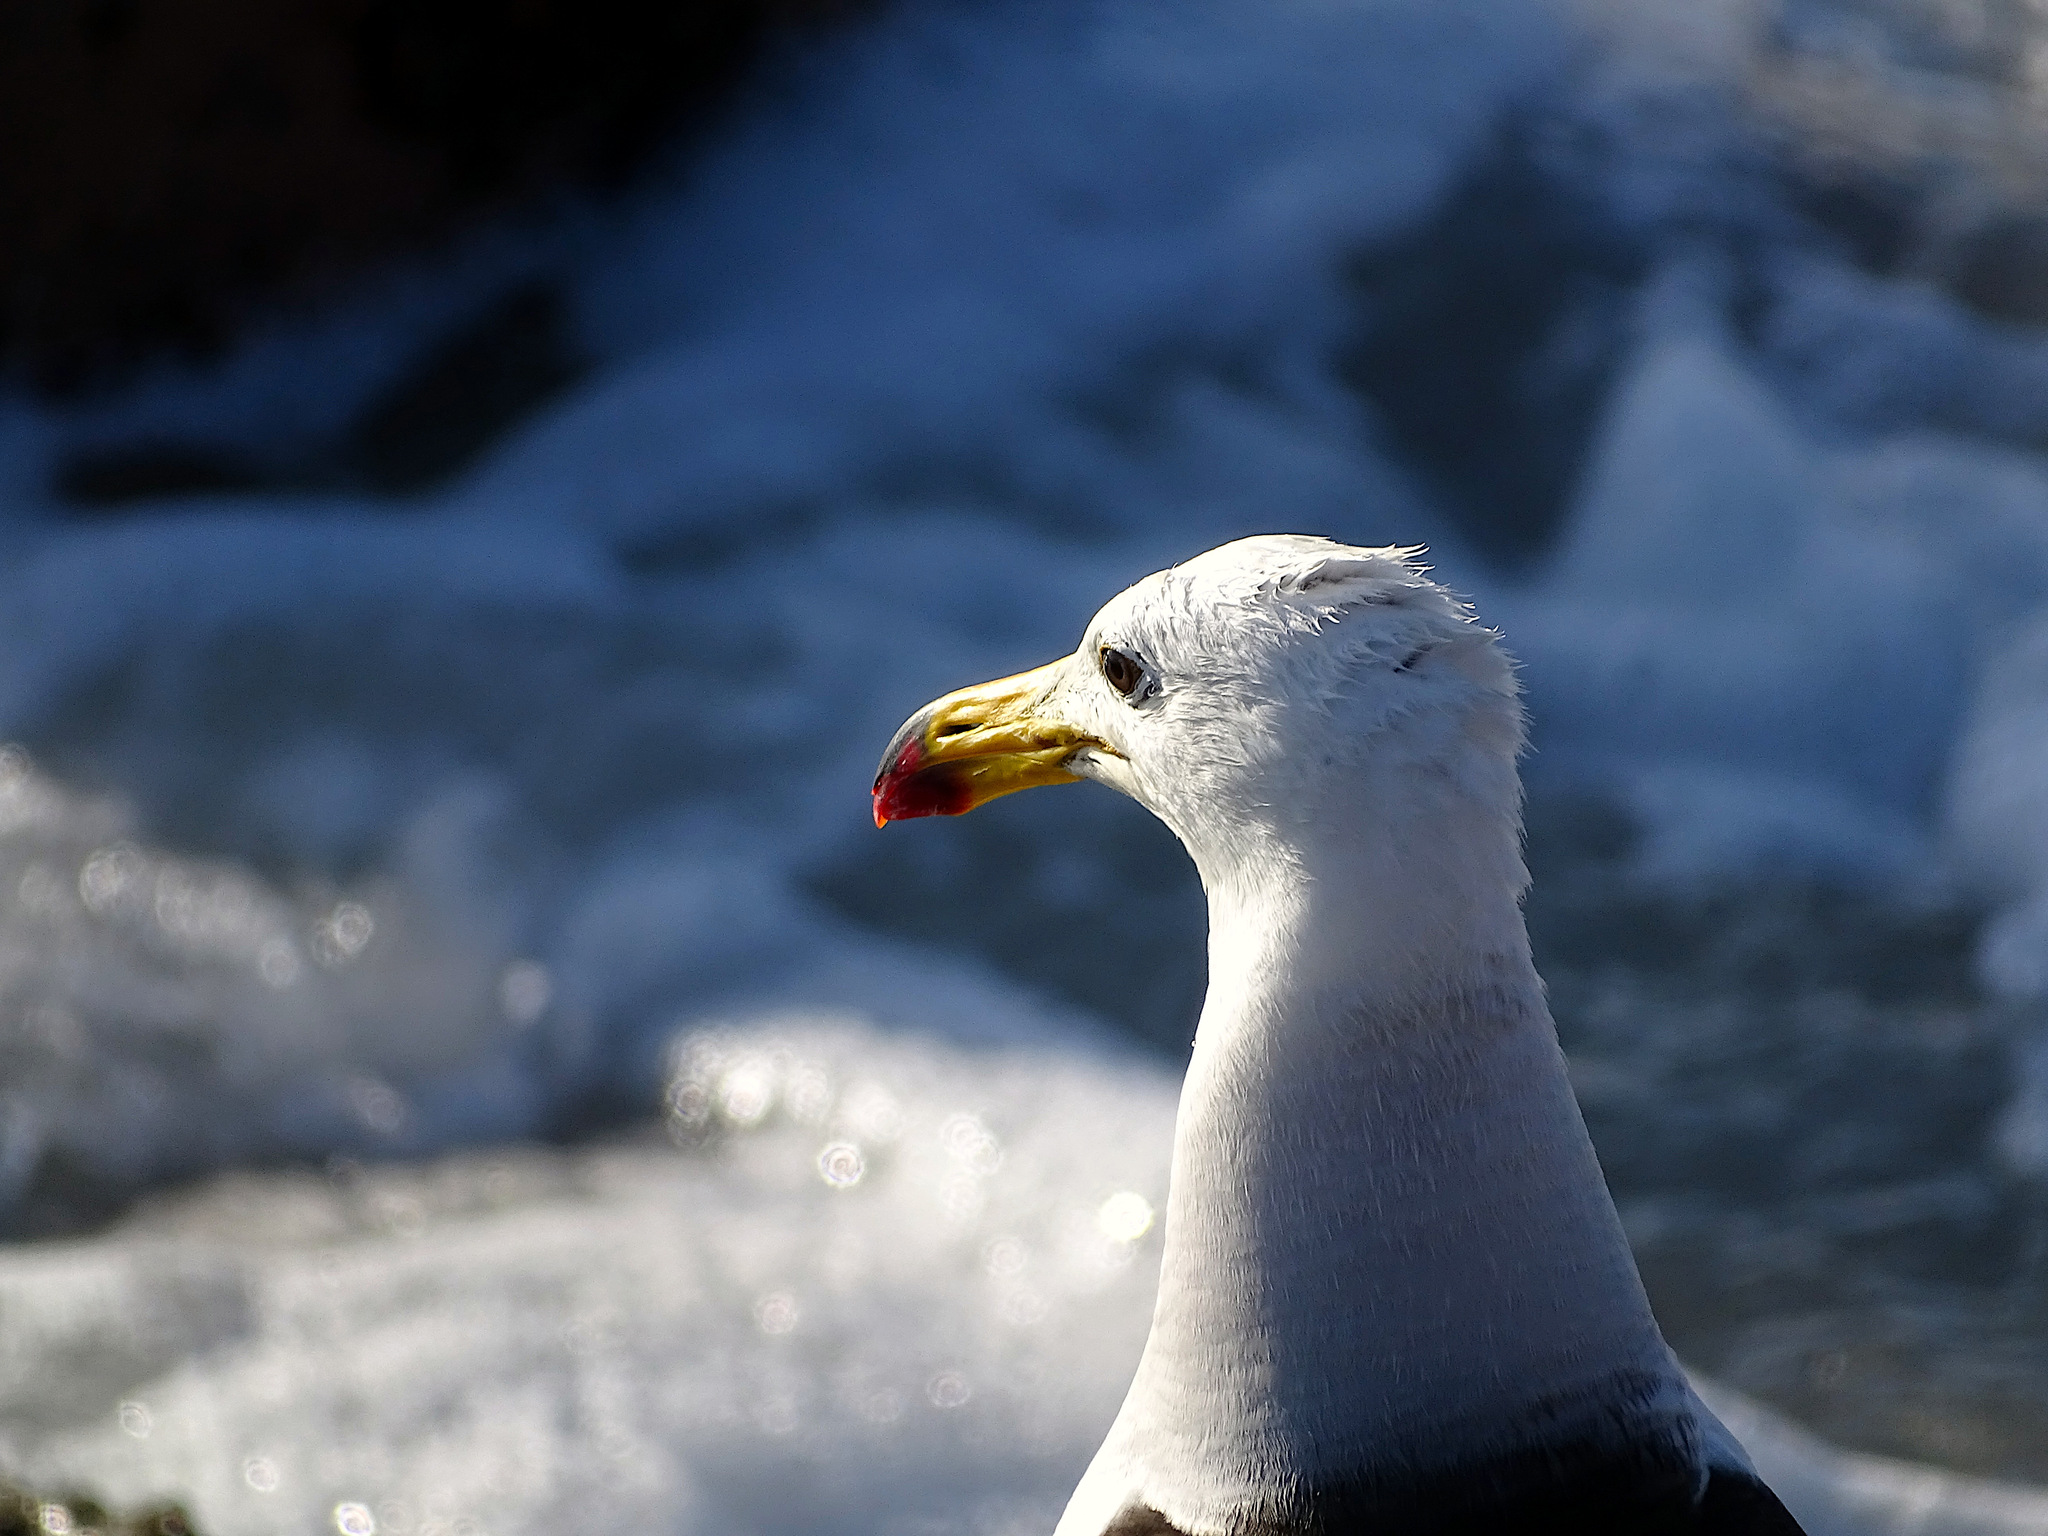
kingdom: Animalia
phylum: Chordata
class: Aves
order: Charadriiformes
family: Laridae
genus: Larus
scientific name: Larus belcheri
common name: Belcher's gull
